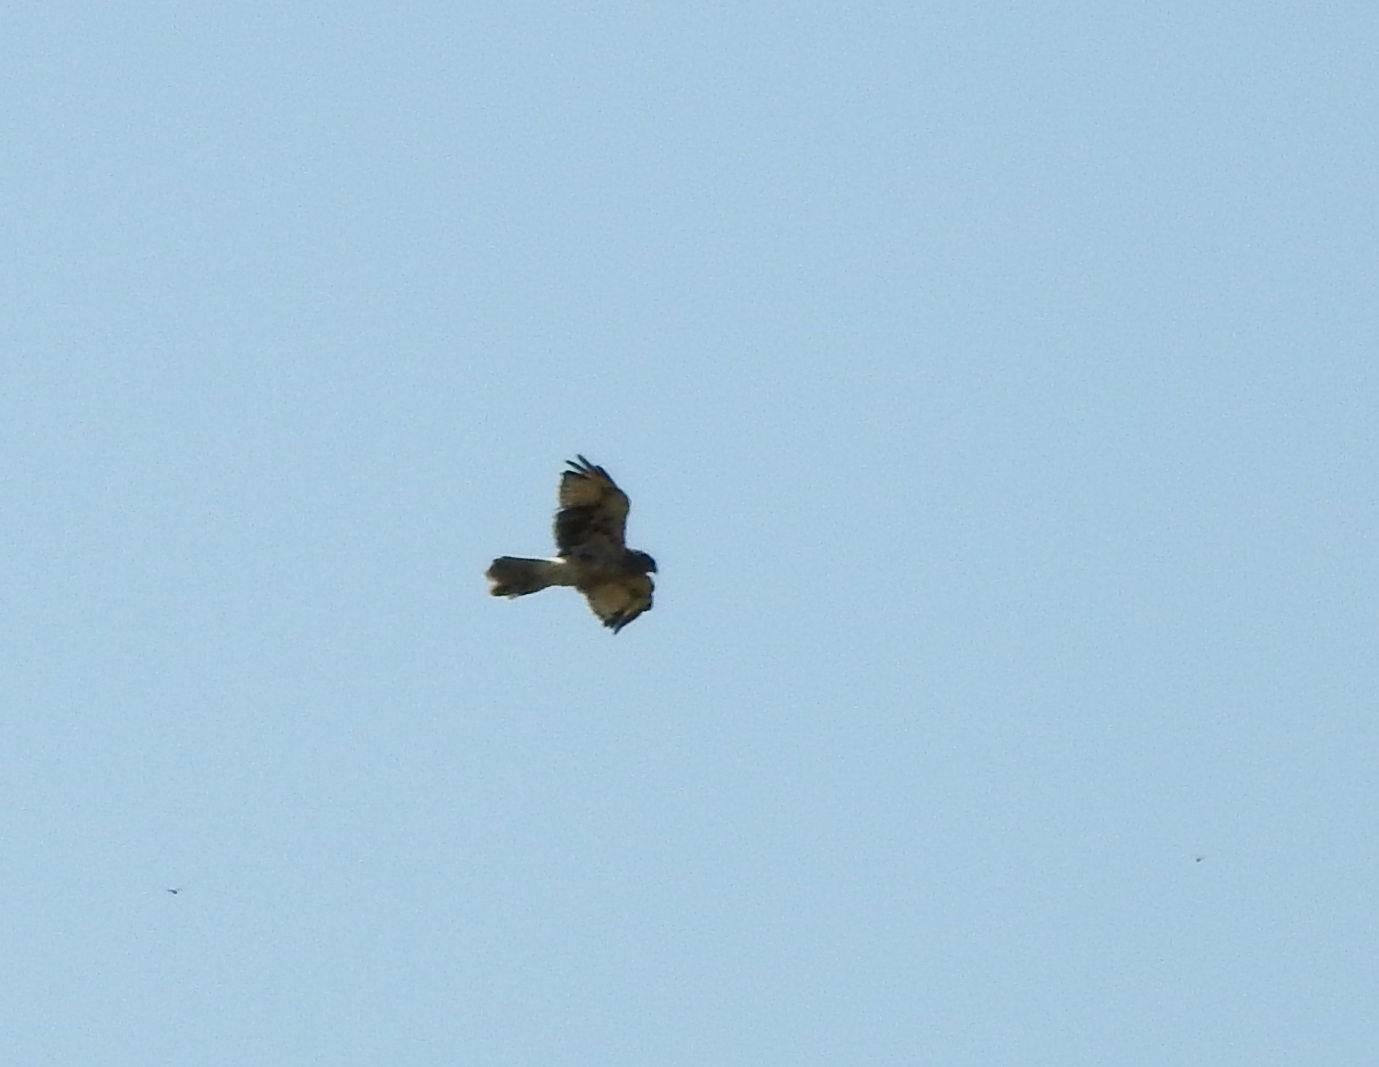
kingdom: Animalia
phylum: Chordata
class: Aves
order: Accipitriformes
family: Accipitridae
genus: Buteo
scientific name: Buteo japonicus
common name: Eastern buzzard
